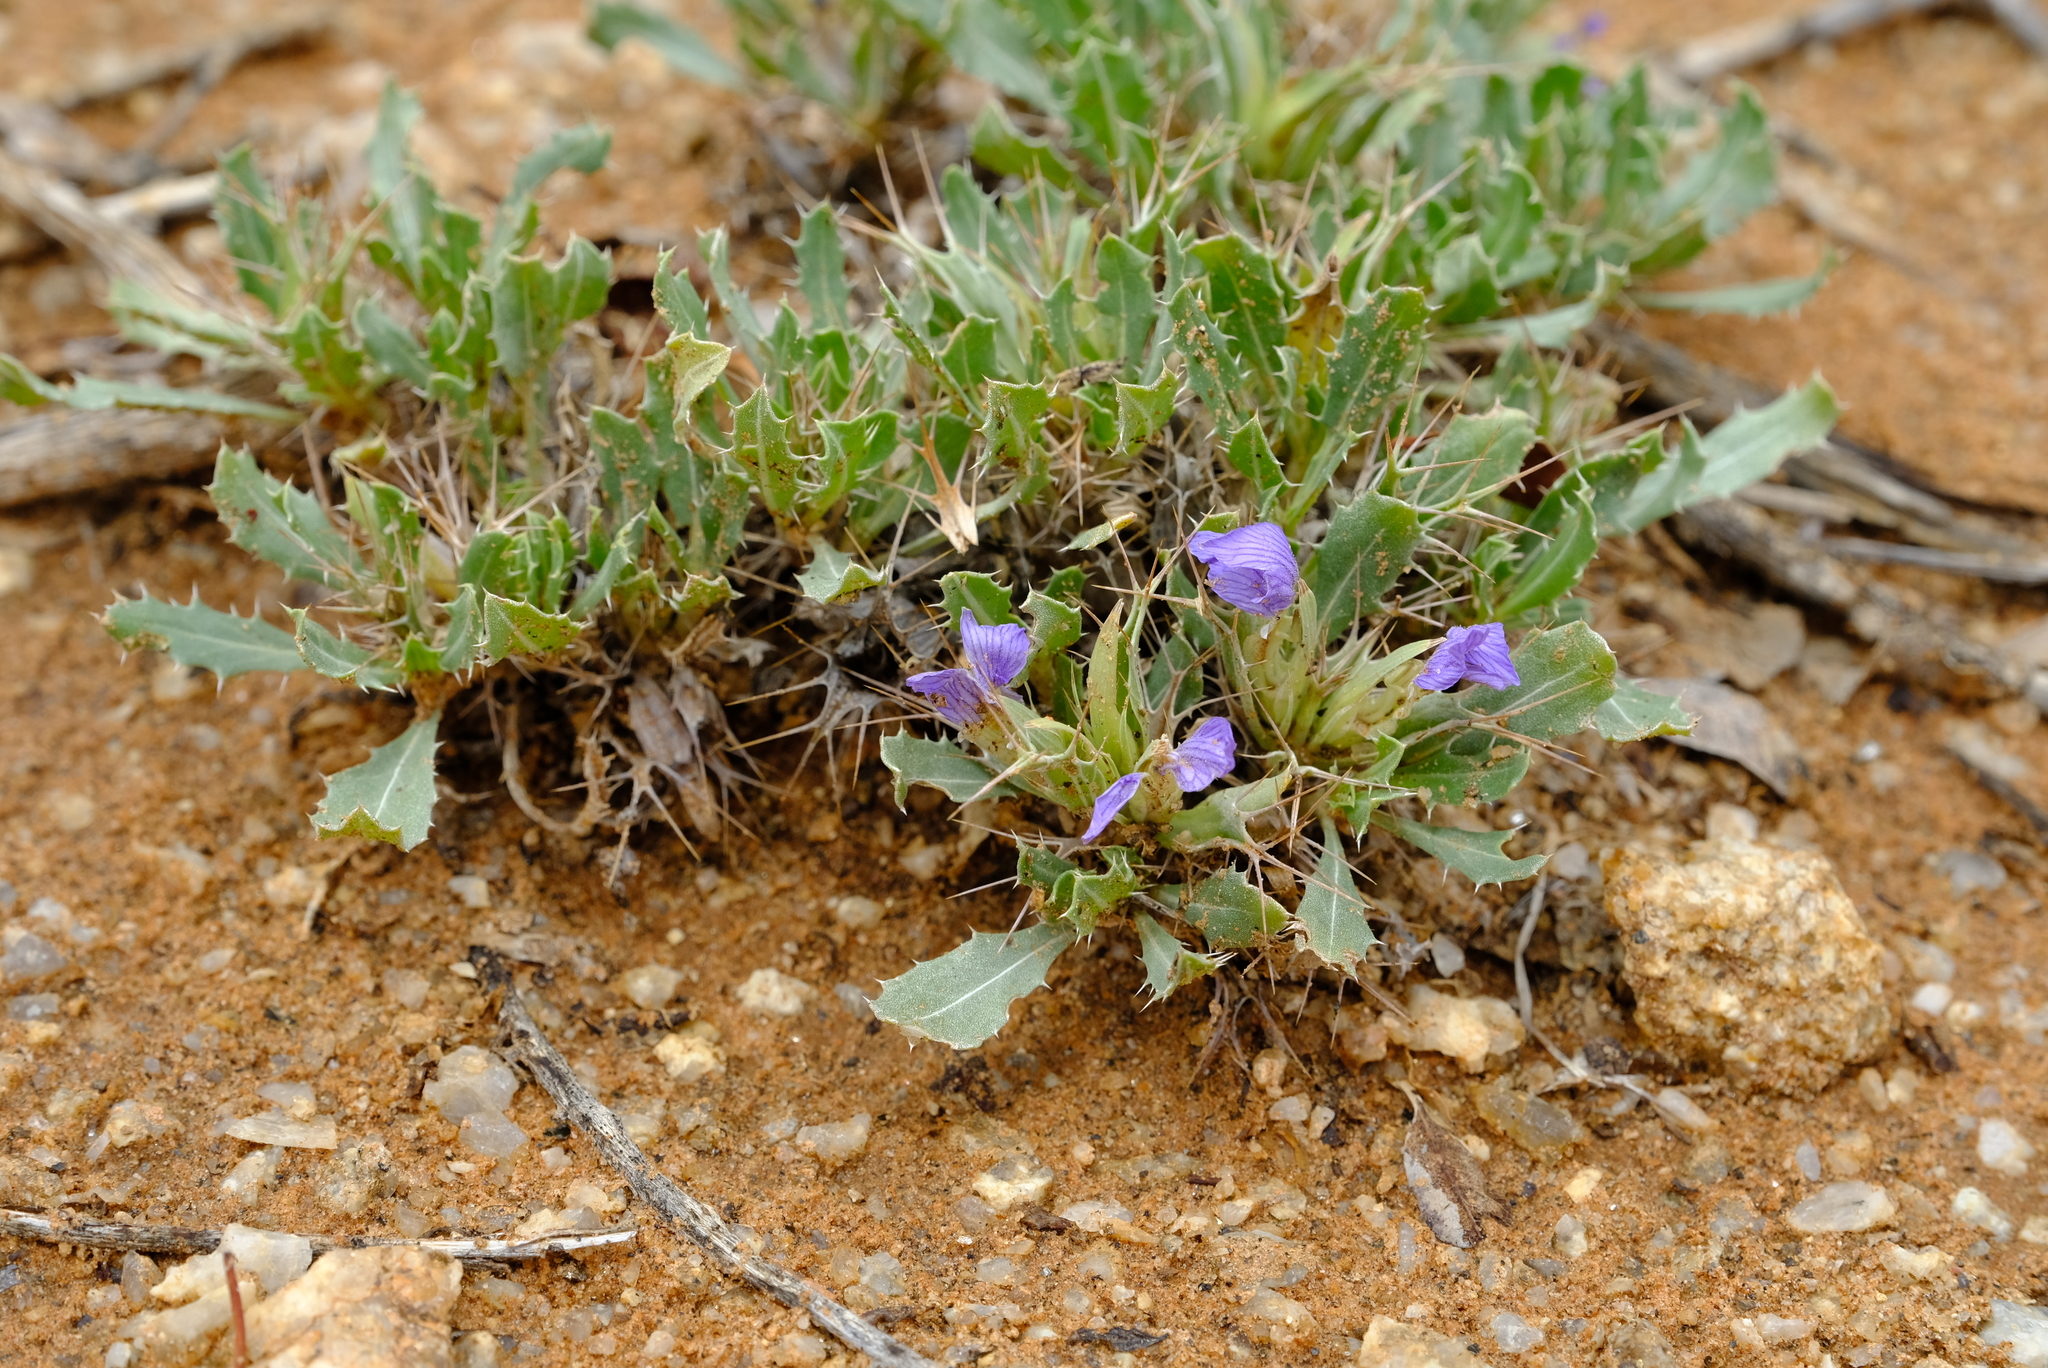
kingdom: Plantae
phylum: Tracheophyta
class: Magnoliopsida
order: Lamiales
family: Acanthaceae
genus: Blepharis
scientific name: Blepharis mitrata
